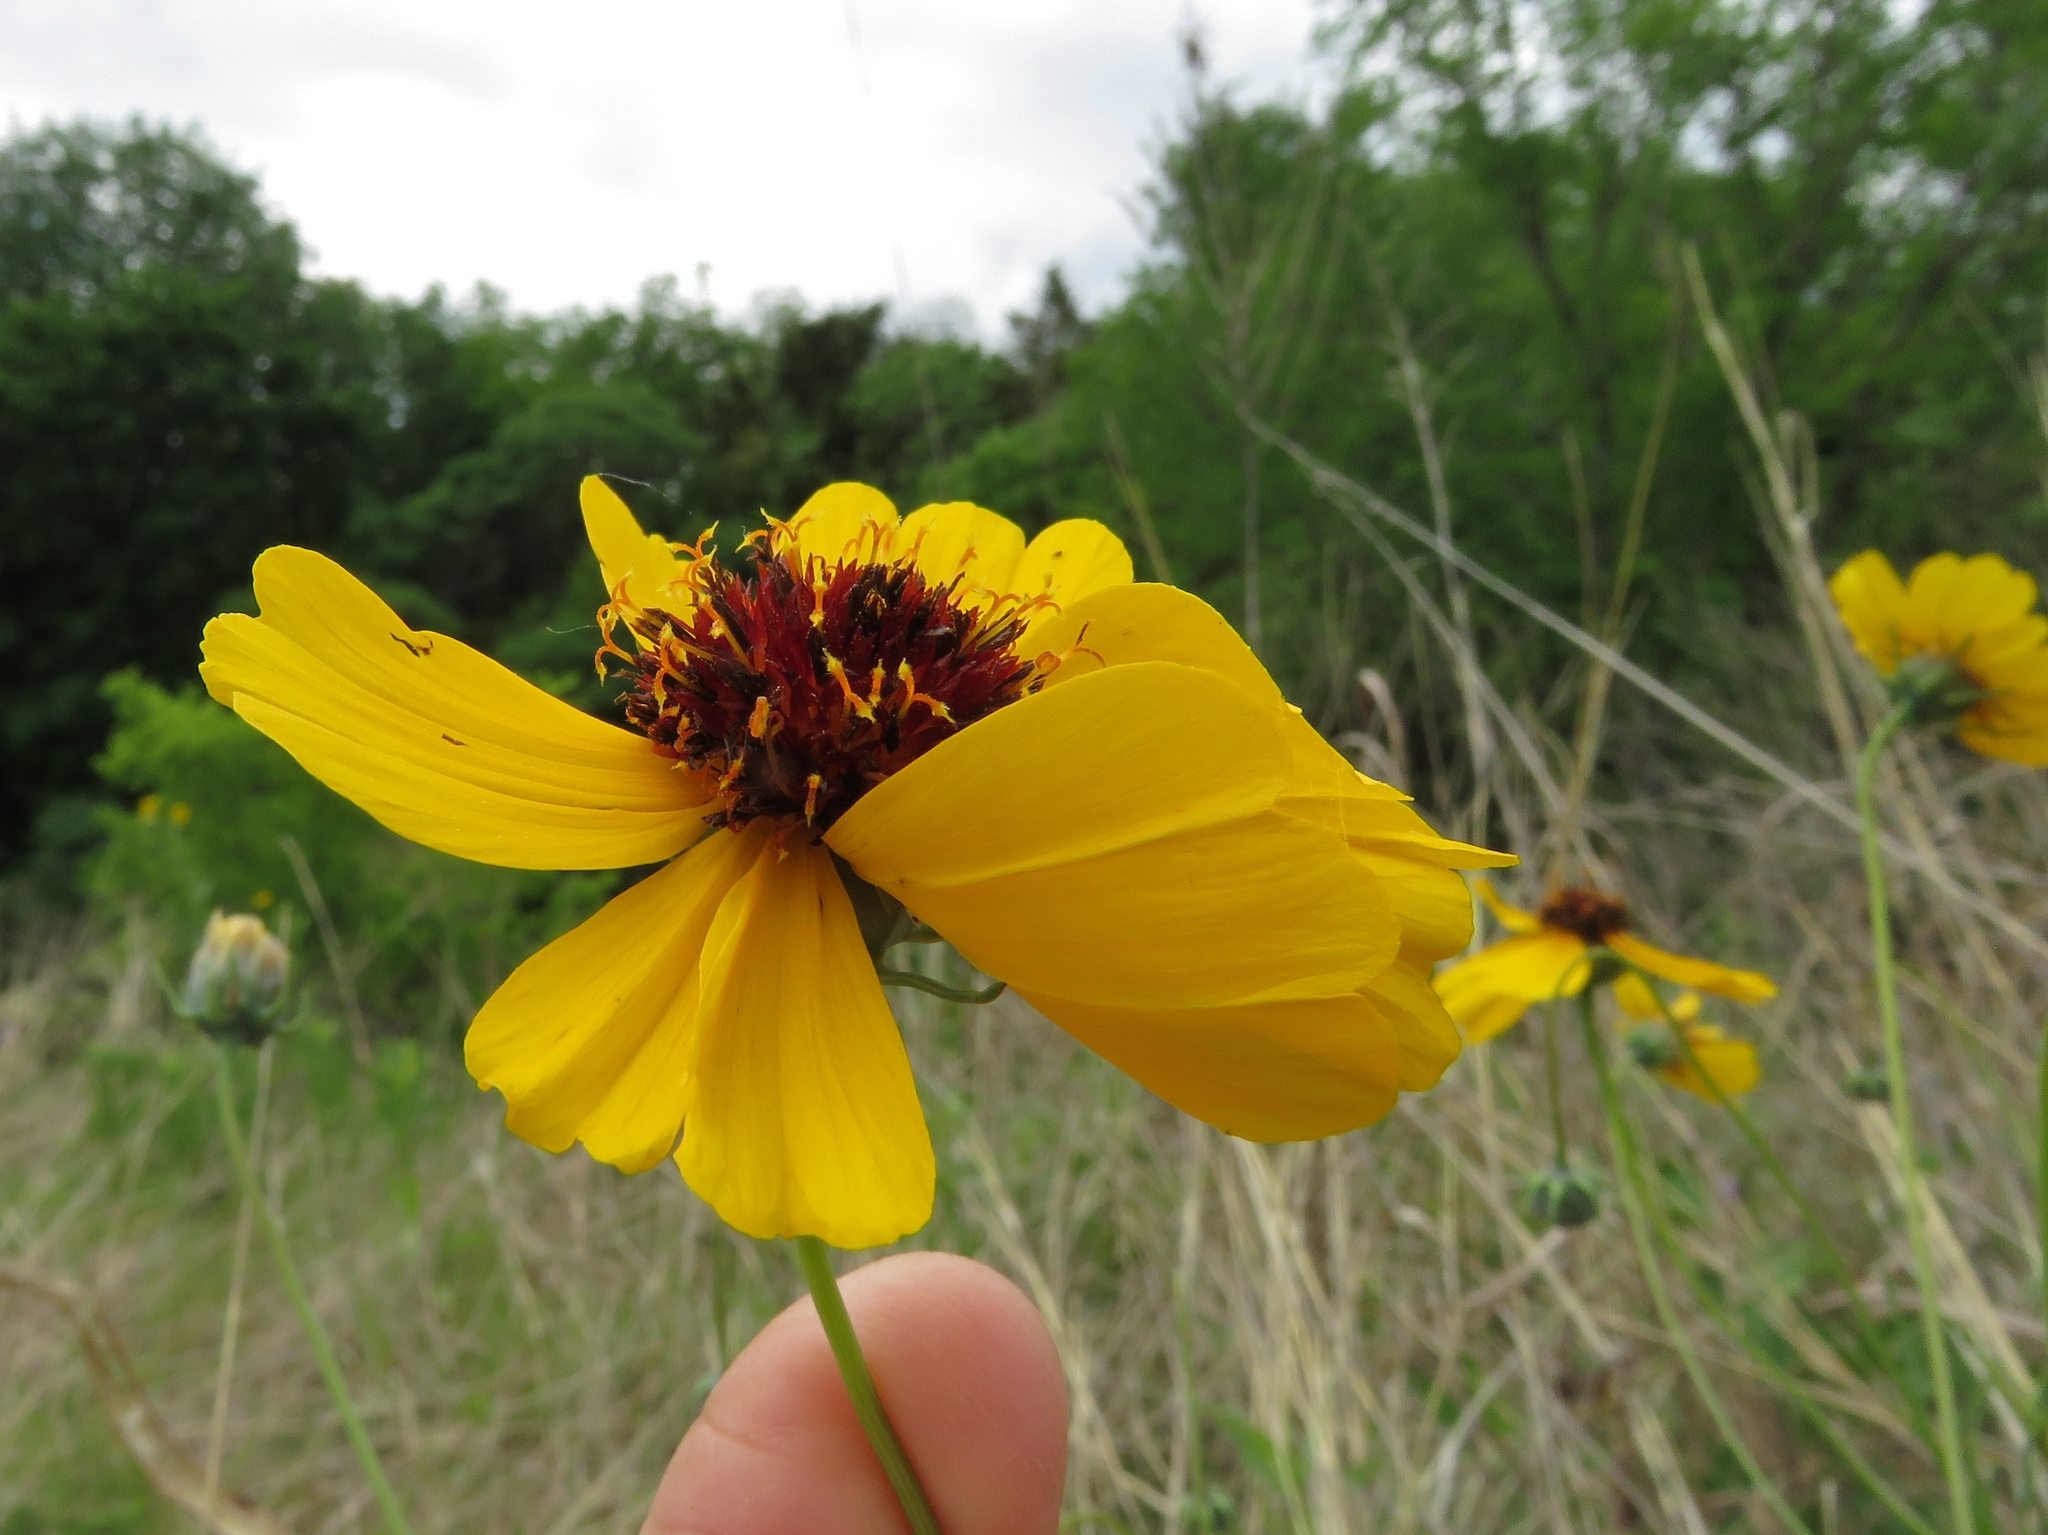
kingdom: Plantae
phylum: Tracheophyta
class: Magnoliopsida
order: Asterales
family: Asteraceae
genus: Thelesperma
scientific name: Thelesperma filifolium
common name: Stiff greenthread
